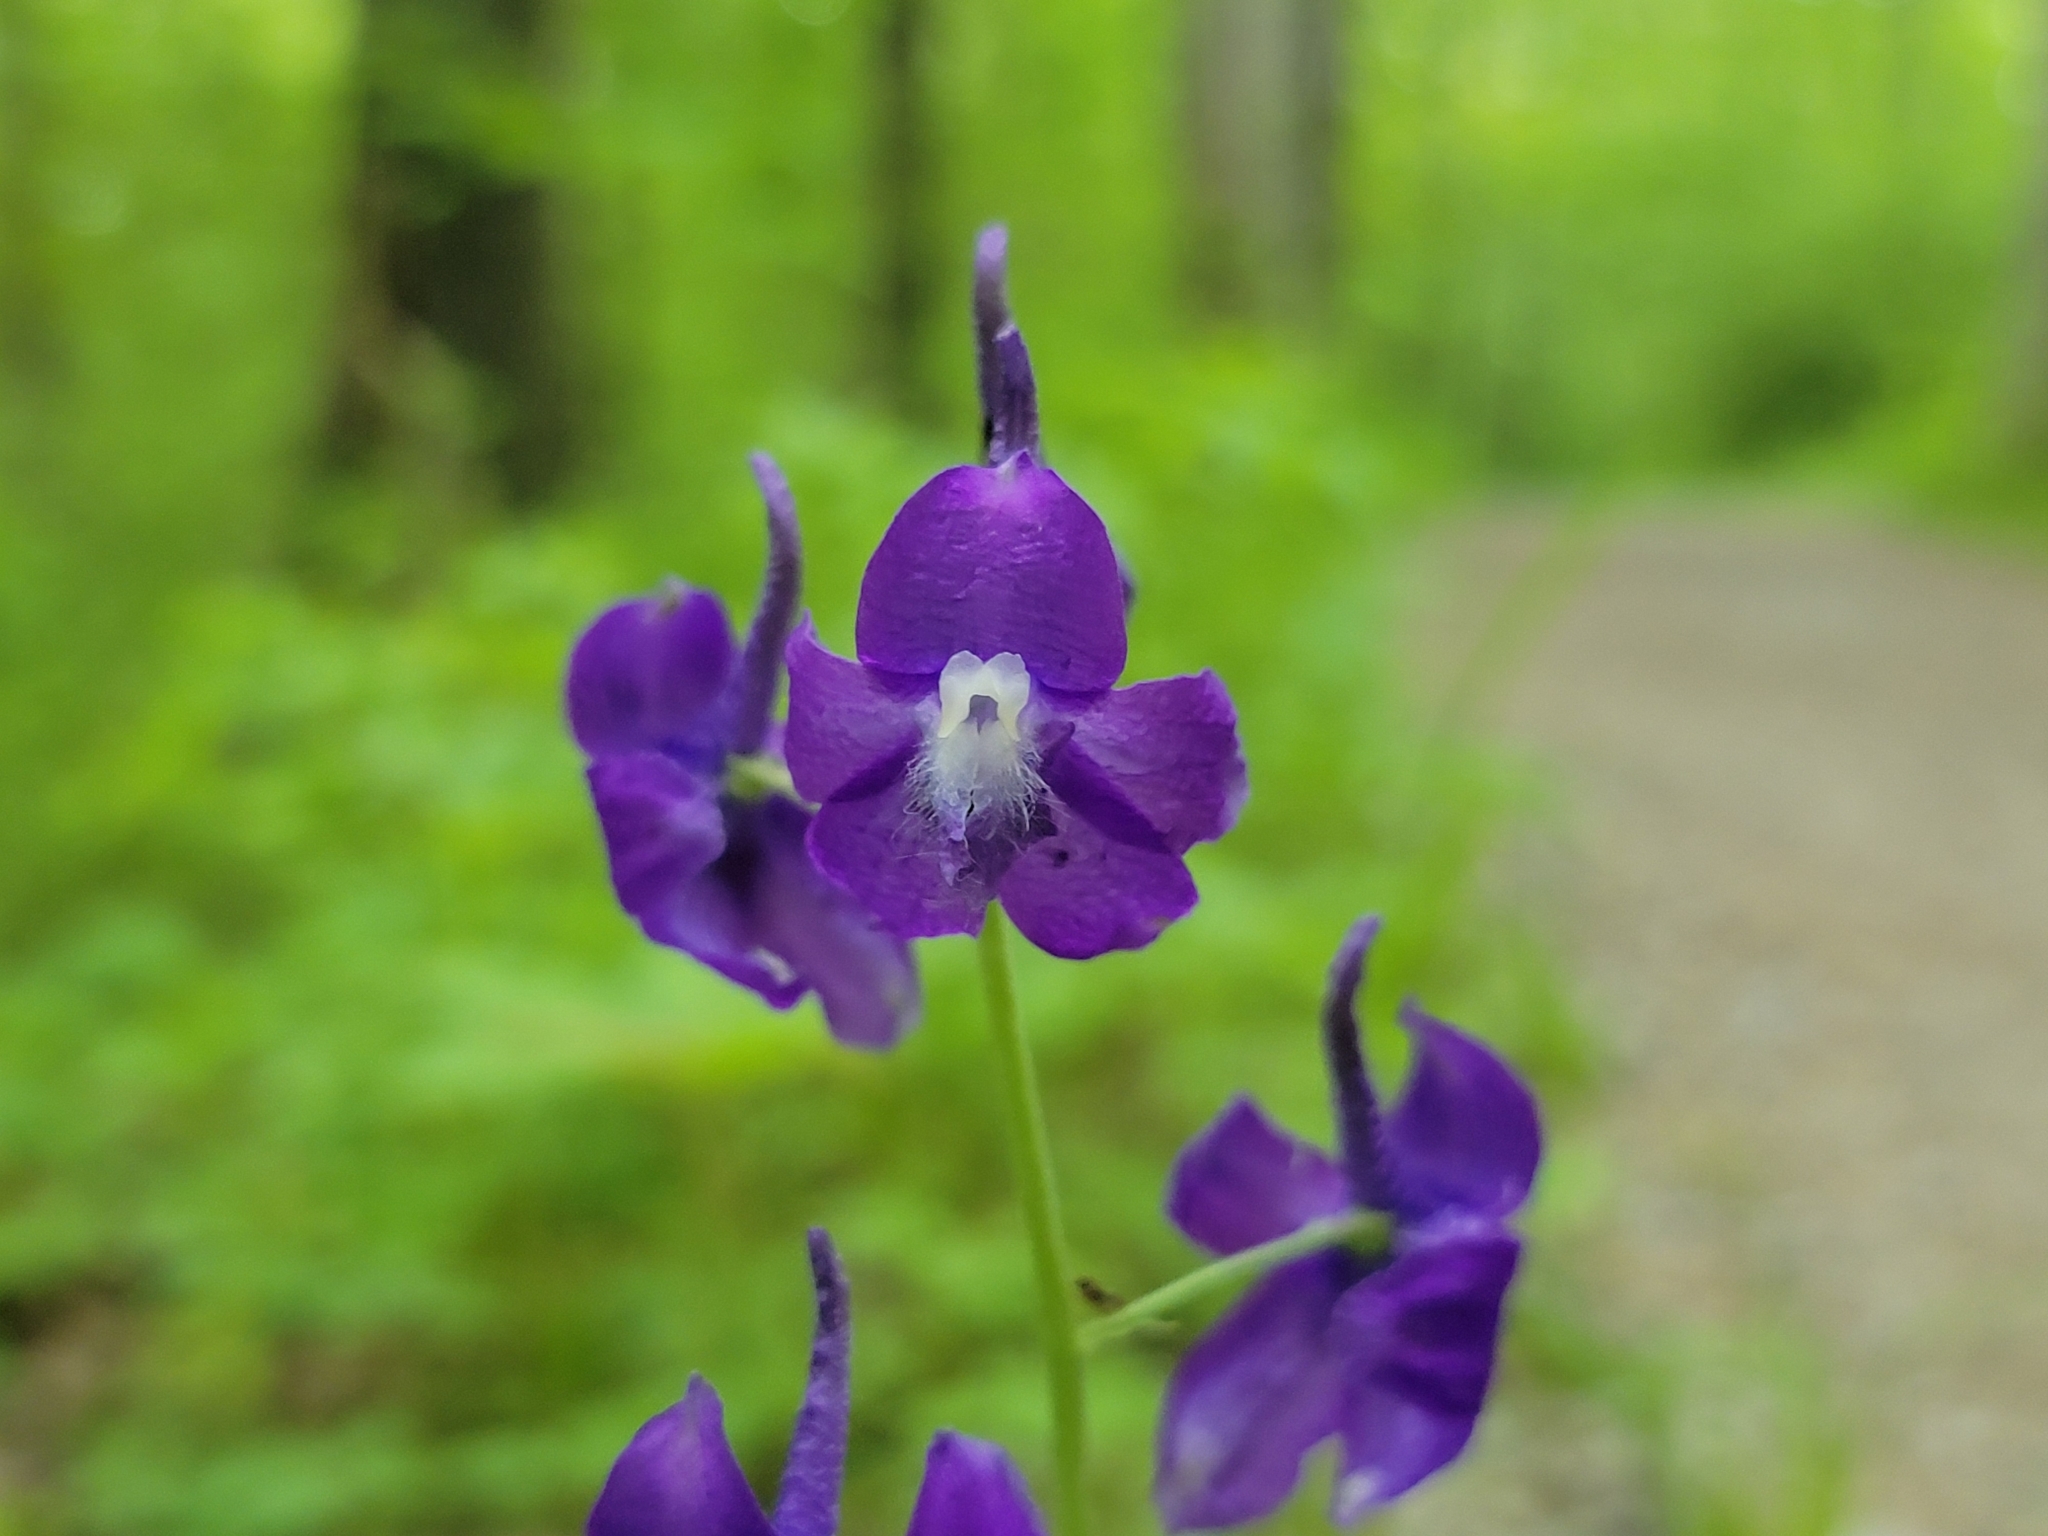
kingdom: Plantae
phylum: Tracheophyta
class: Magnoliopsida
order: Ranunculales
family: Ranunculaceae
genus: Delphinium
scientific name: Delphinium tricorne
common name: Dwarf larkspur
